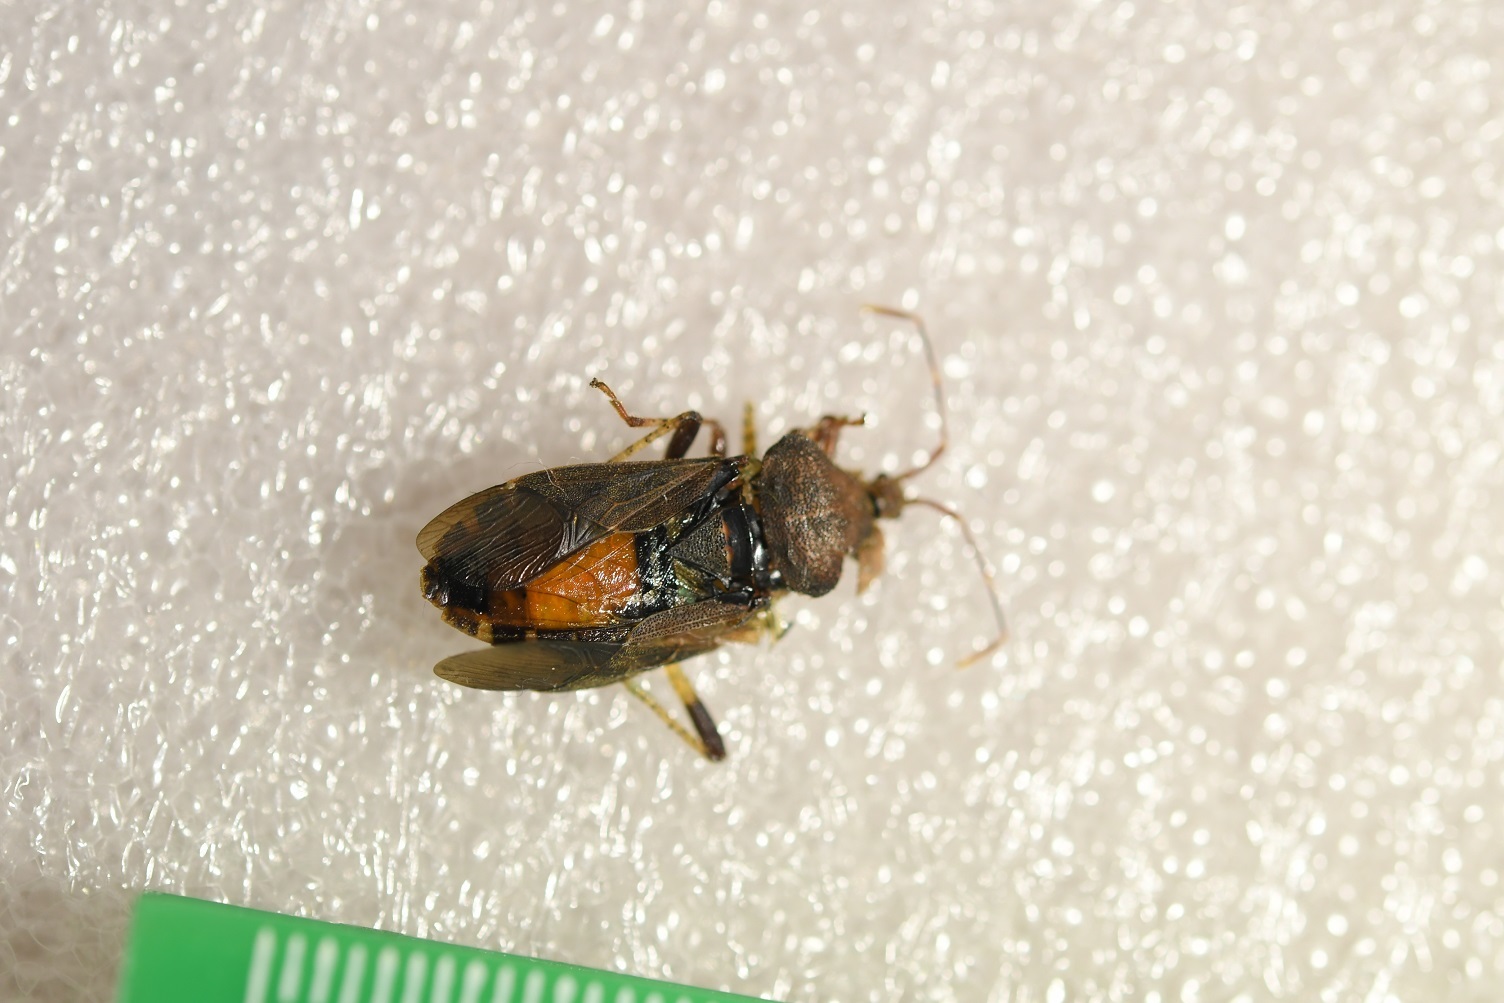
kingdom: Animalia
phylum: Arthropoda
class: Insecta
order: Hemiptera
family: Coreidae
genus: Anasa
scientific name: Anasa scorbutica
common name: Squash bug
